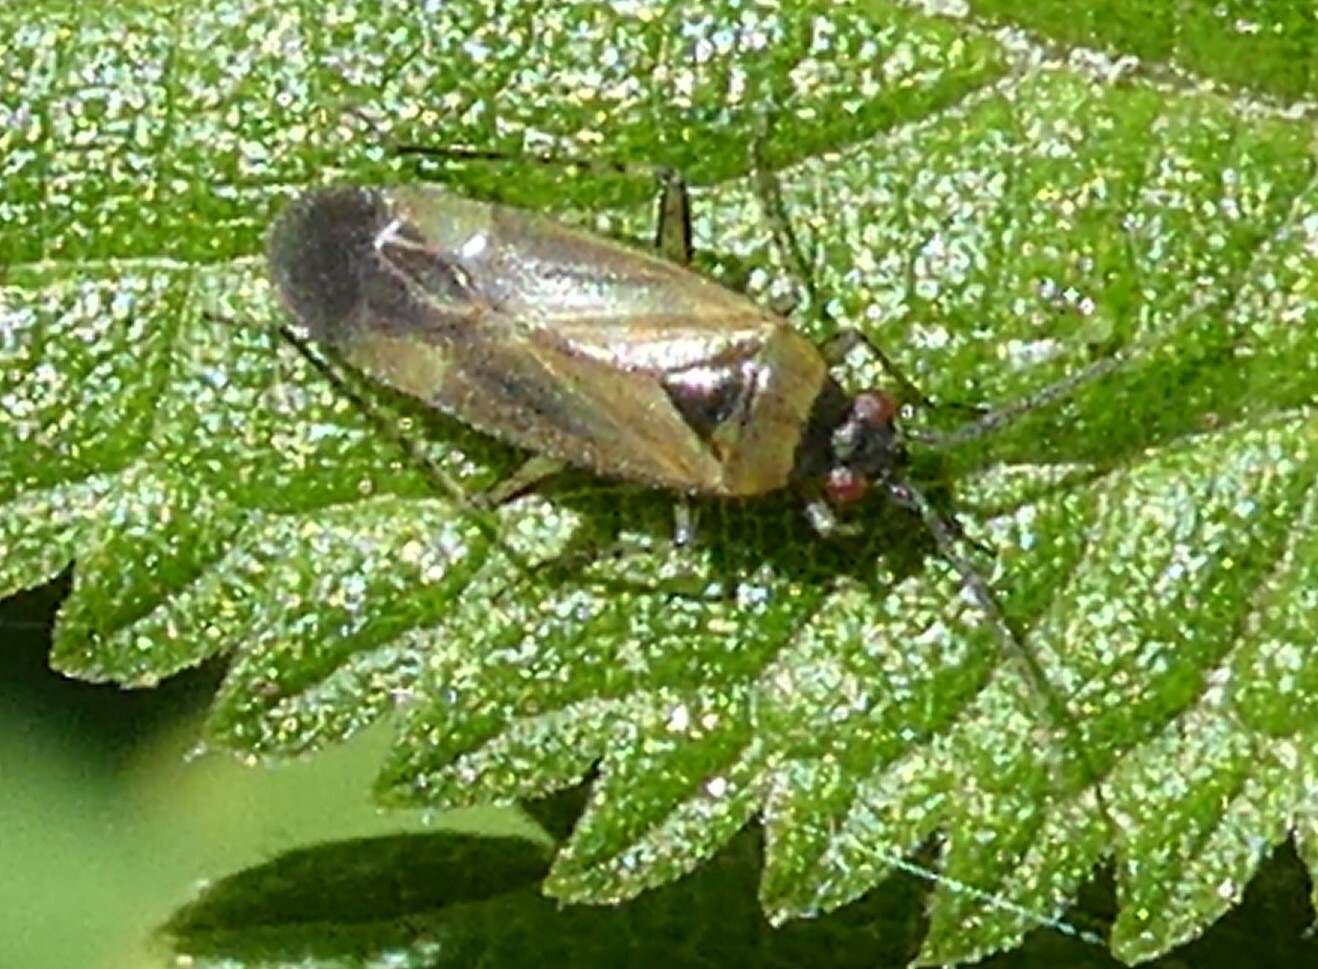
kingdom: Animalia
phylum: Arthropoda
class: Insecta
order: Hemiptera
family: Miridae
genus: Plagiognathus
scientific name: Plagiognathus arbustorum
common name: Plant bug
